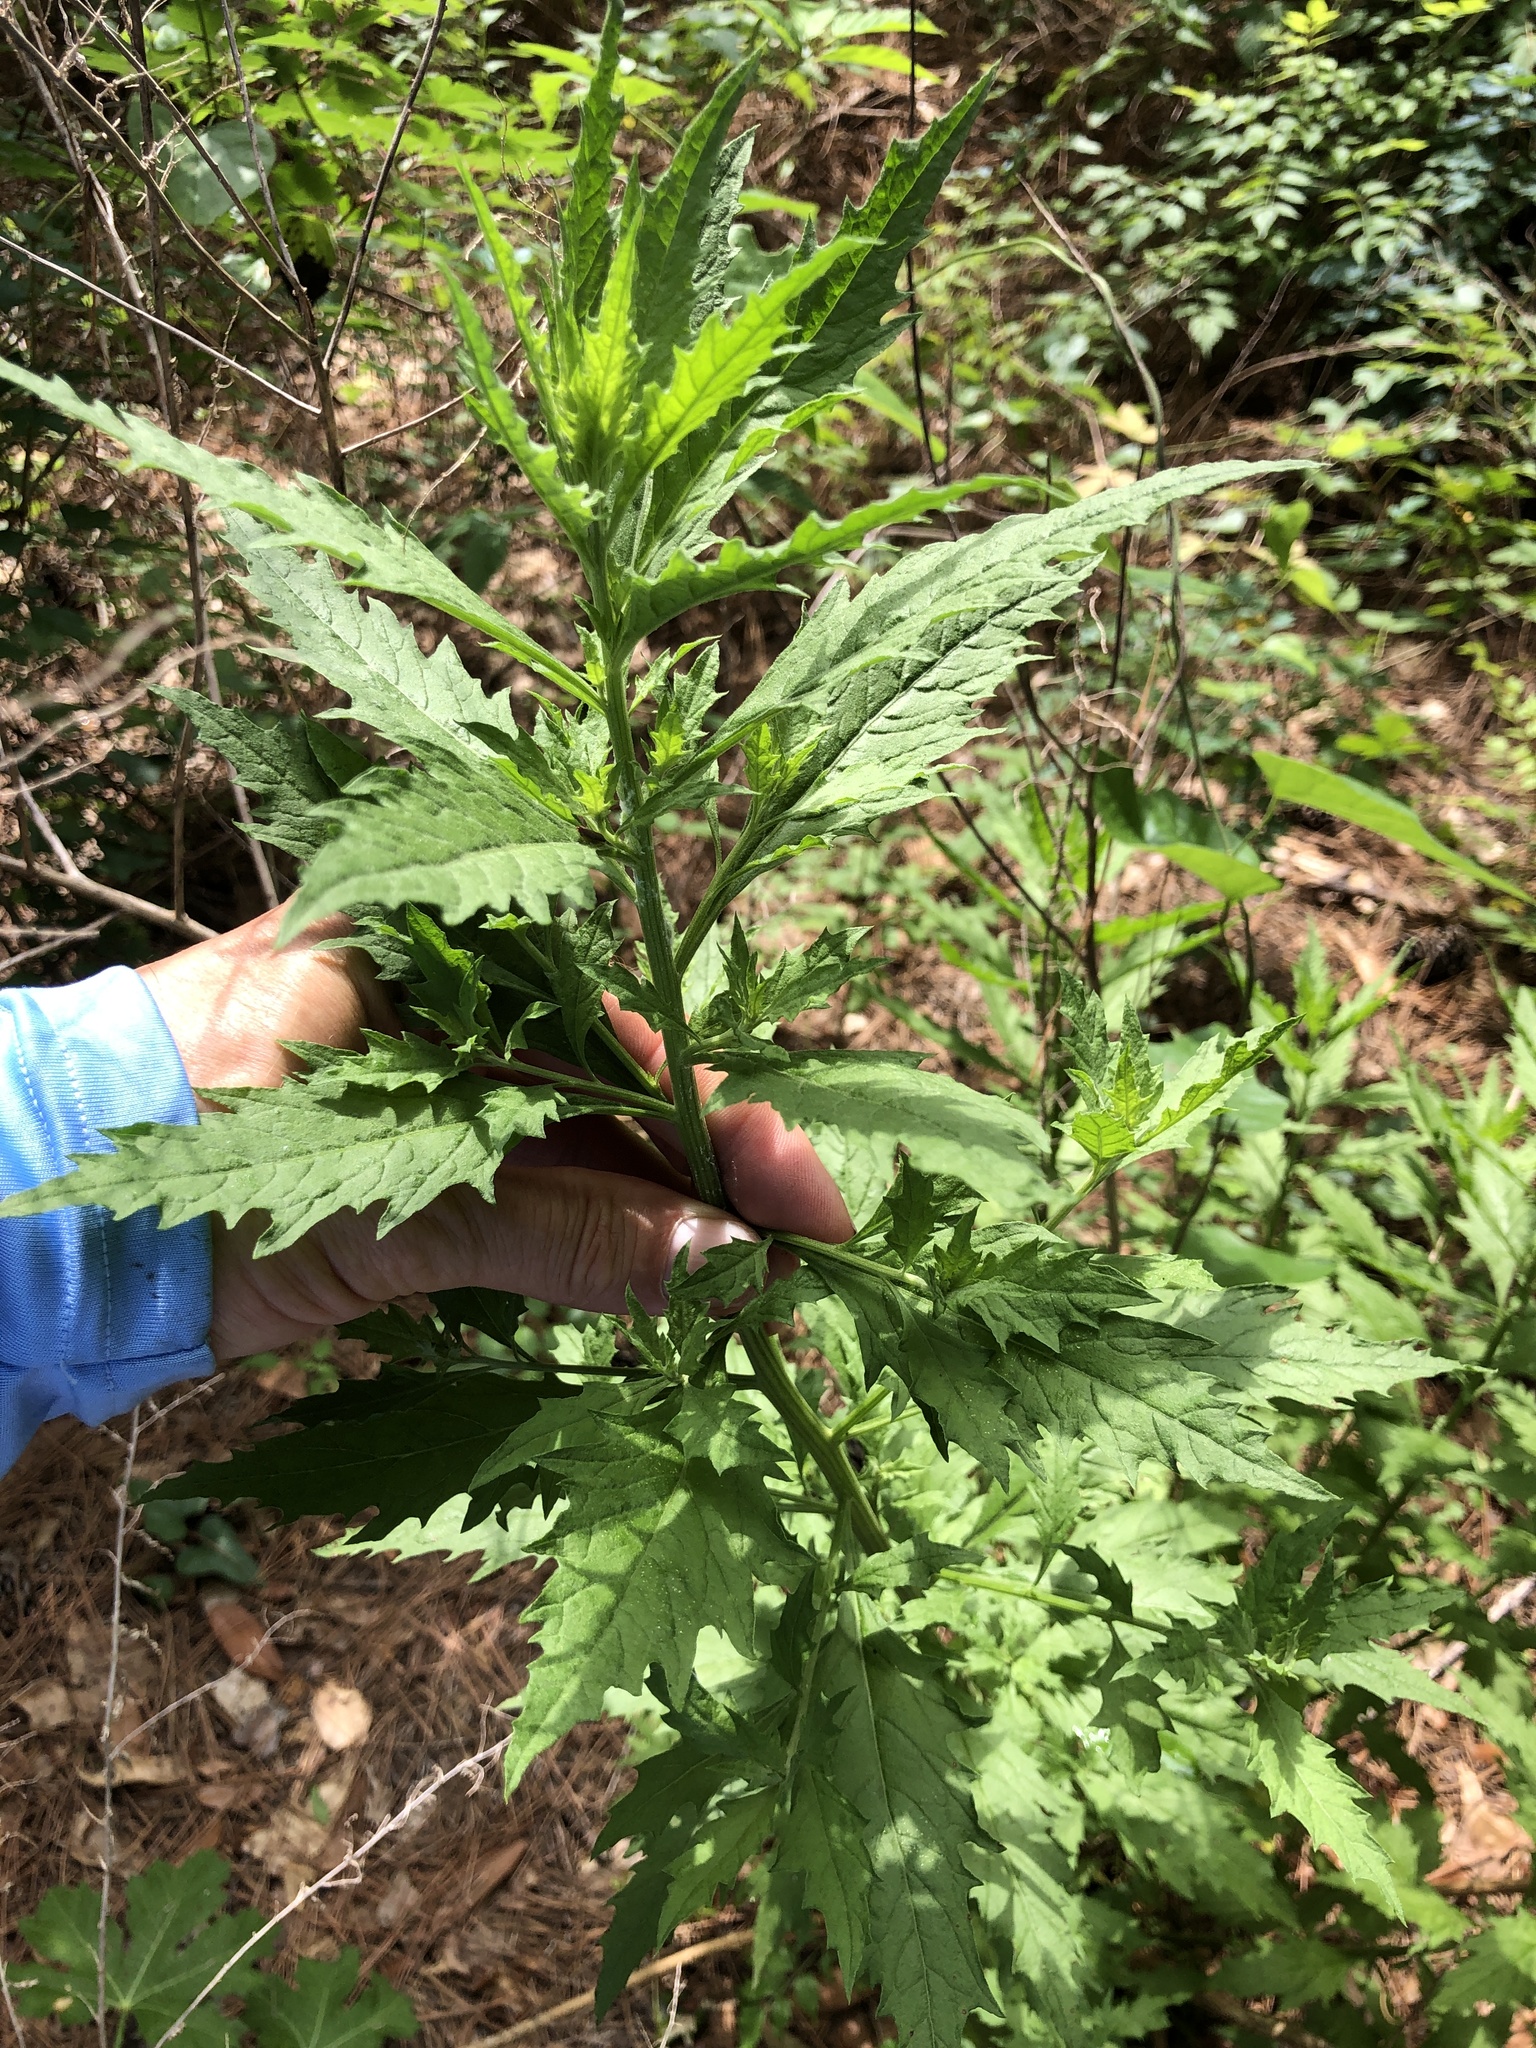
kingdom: Plantae
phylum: Tracheophyta
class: Magnoliopsida
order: Caryophyllales
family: Amaranthaceae
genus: Dysphania
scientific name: Dysphania ambrosioides
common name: Wormseed
